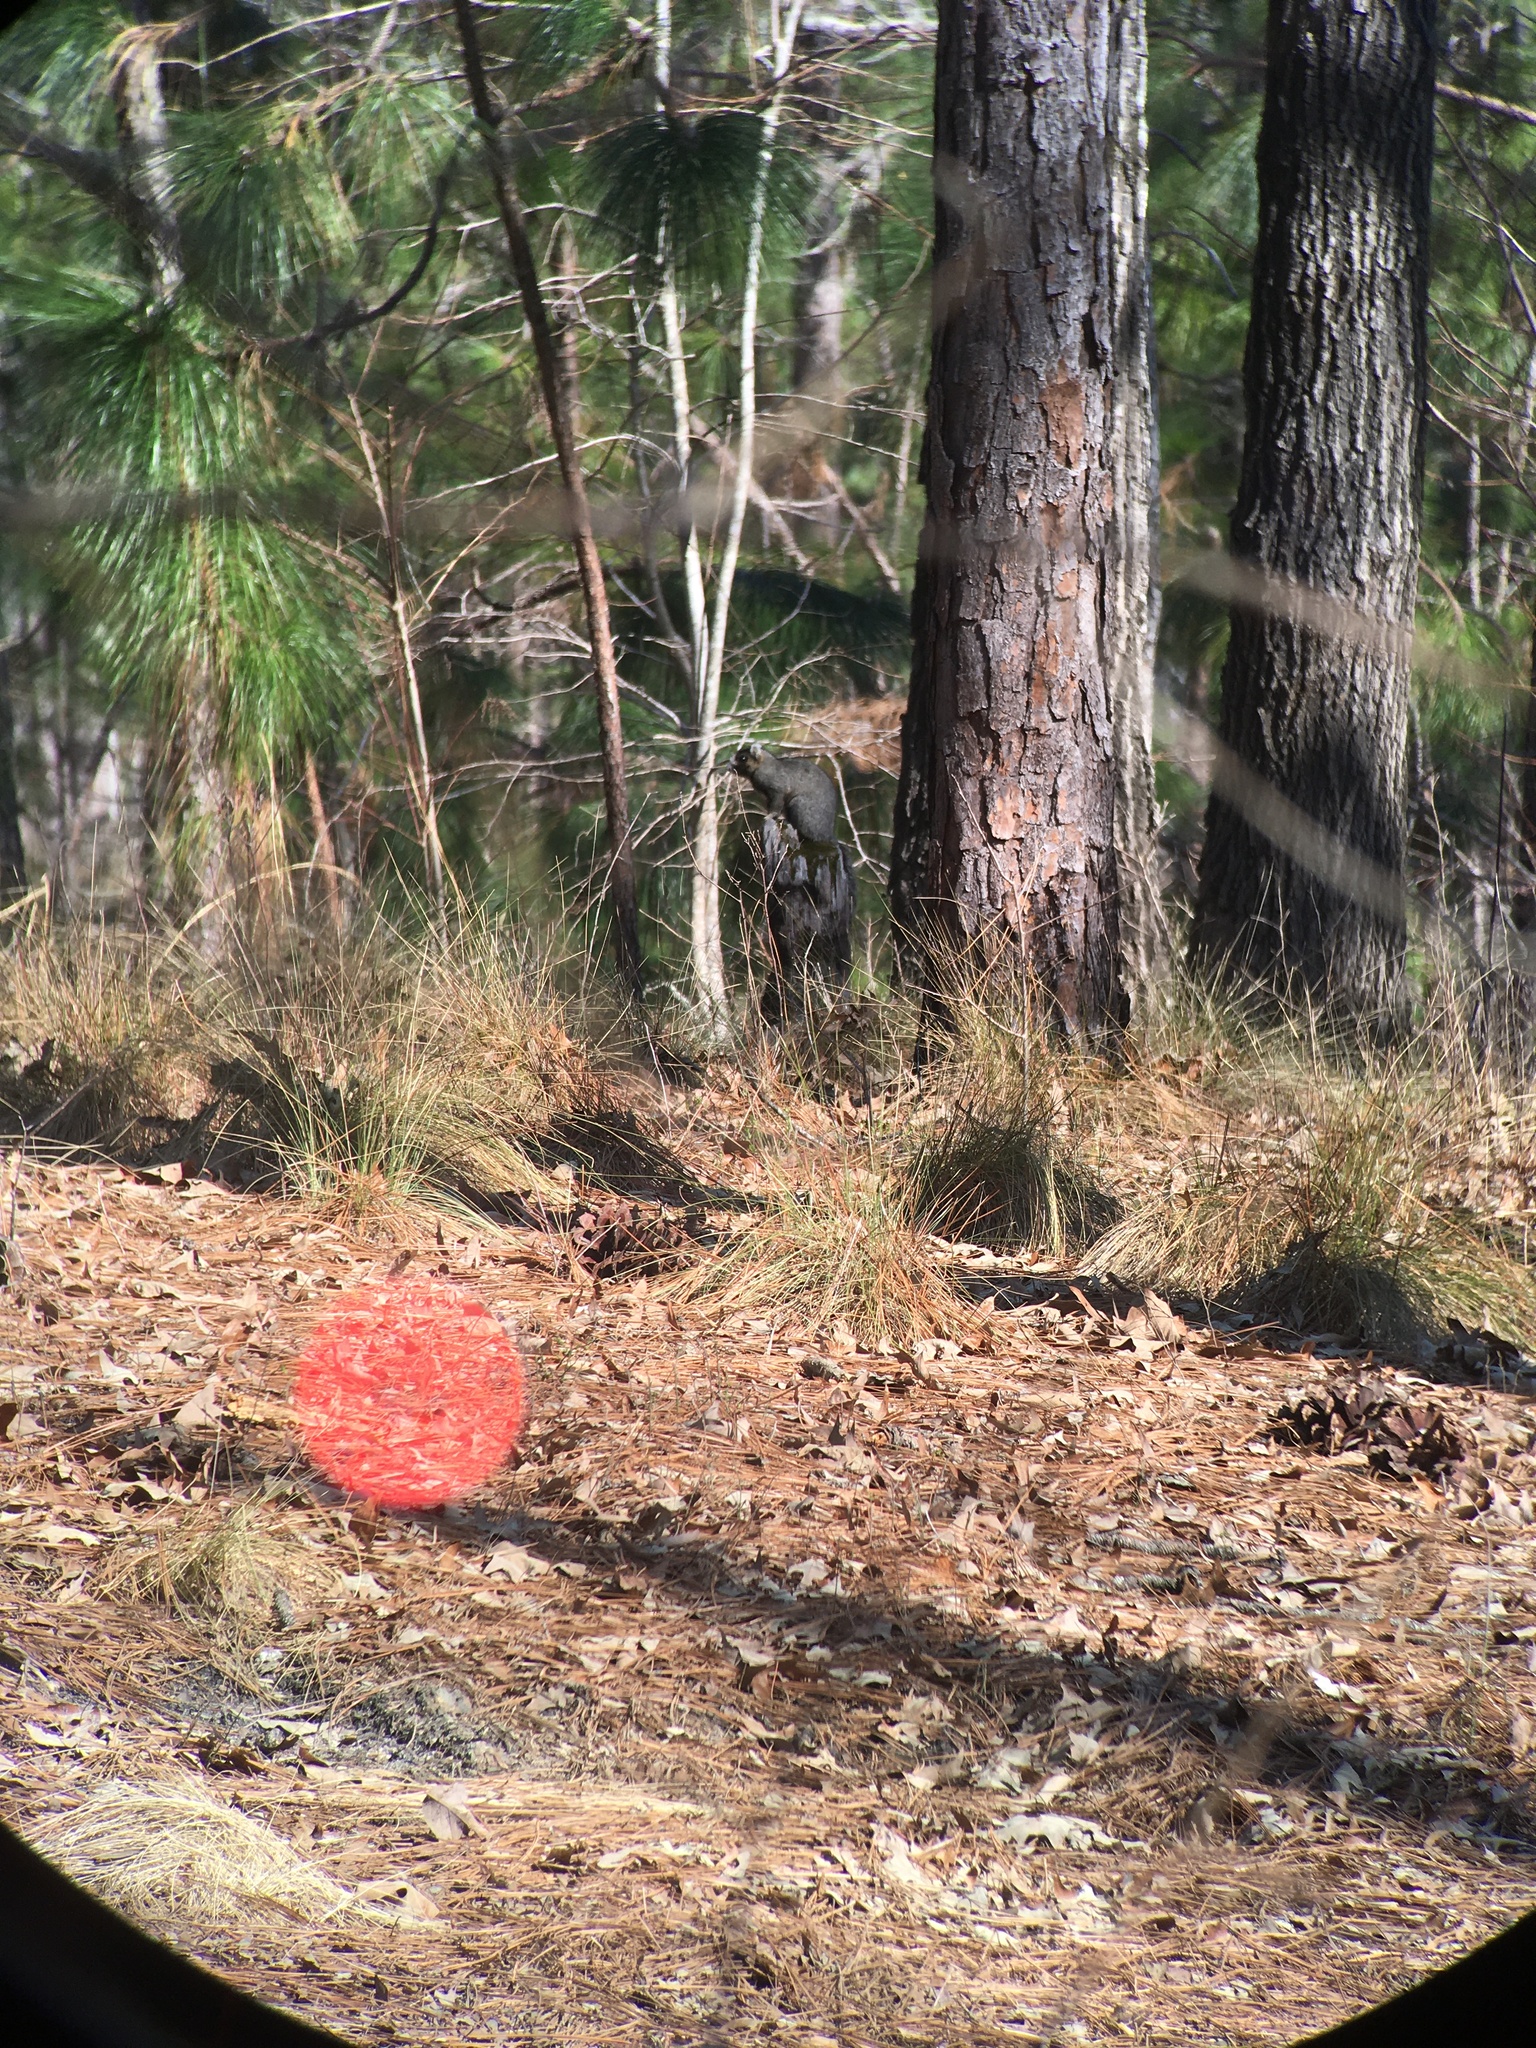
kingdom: Animalia
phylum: Chordata
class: Mammalia
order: Rodentia
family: Sciuridae
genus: Sciurus
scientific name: Sciurus niger
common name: Fox squirrel
